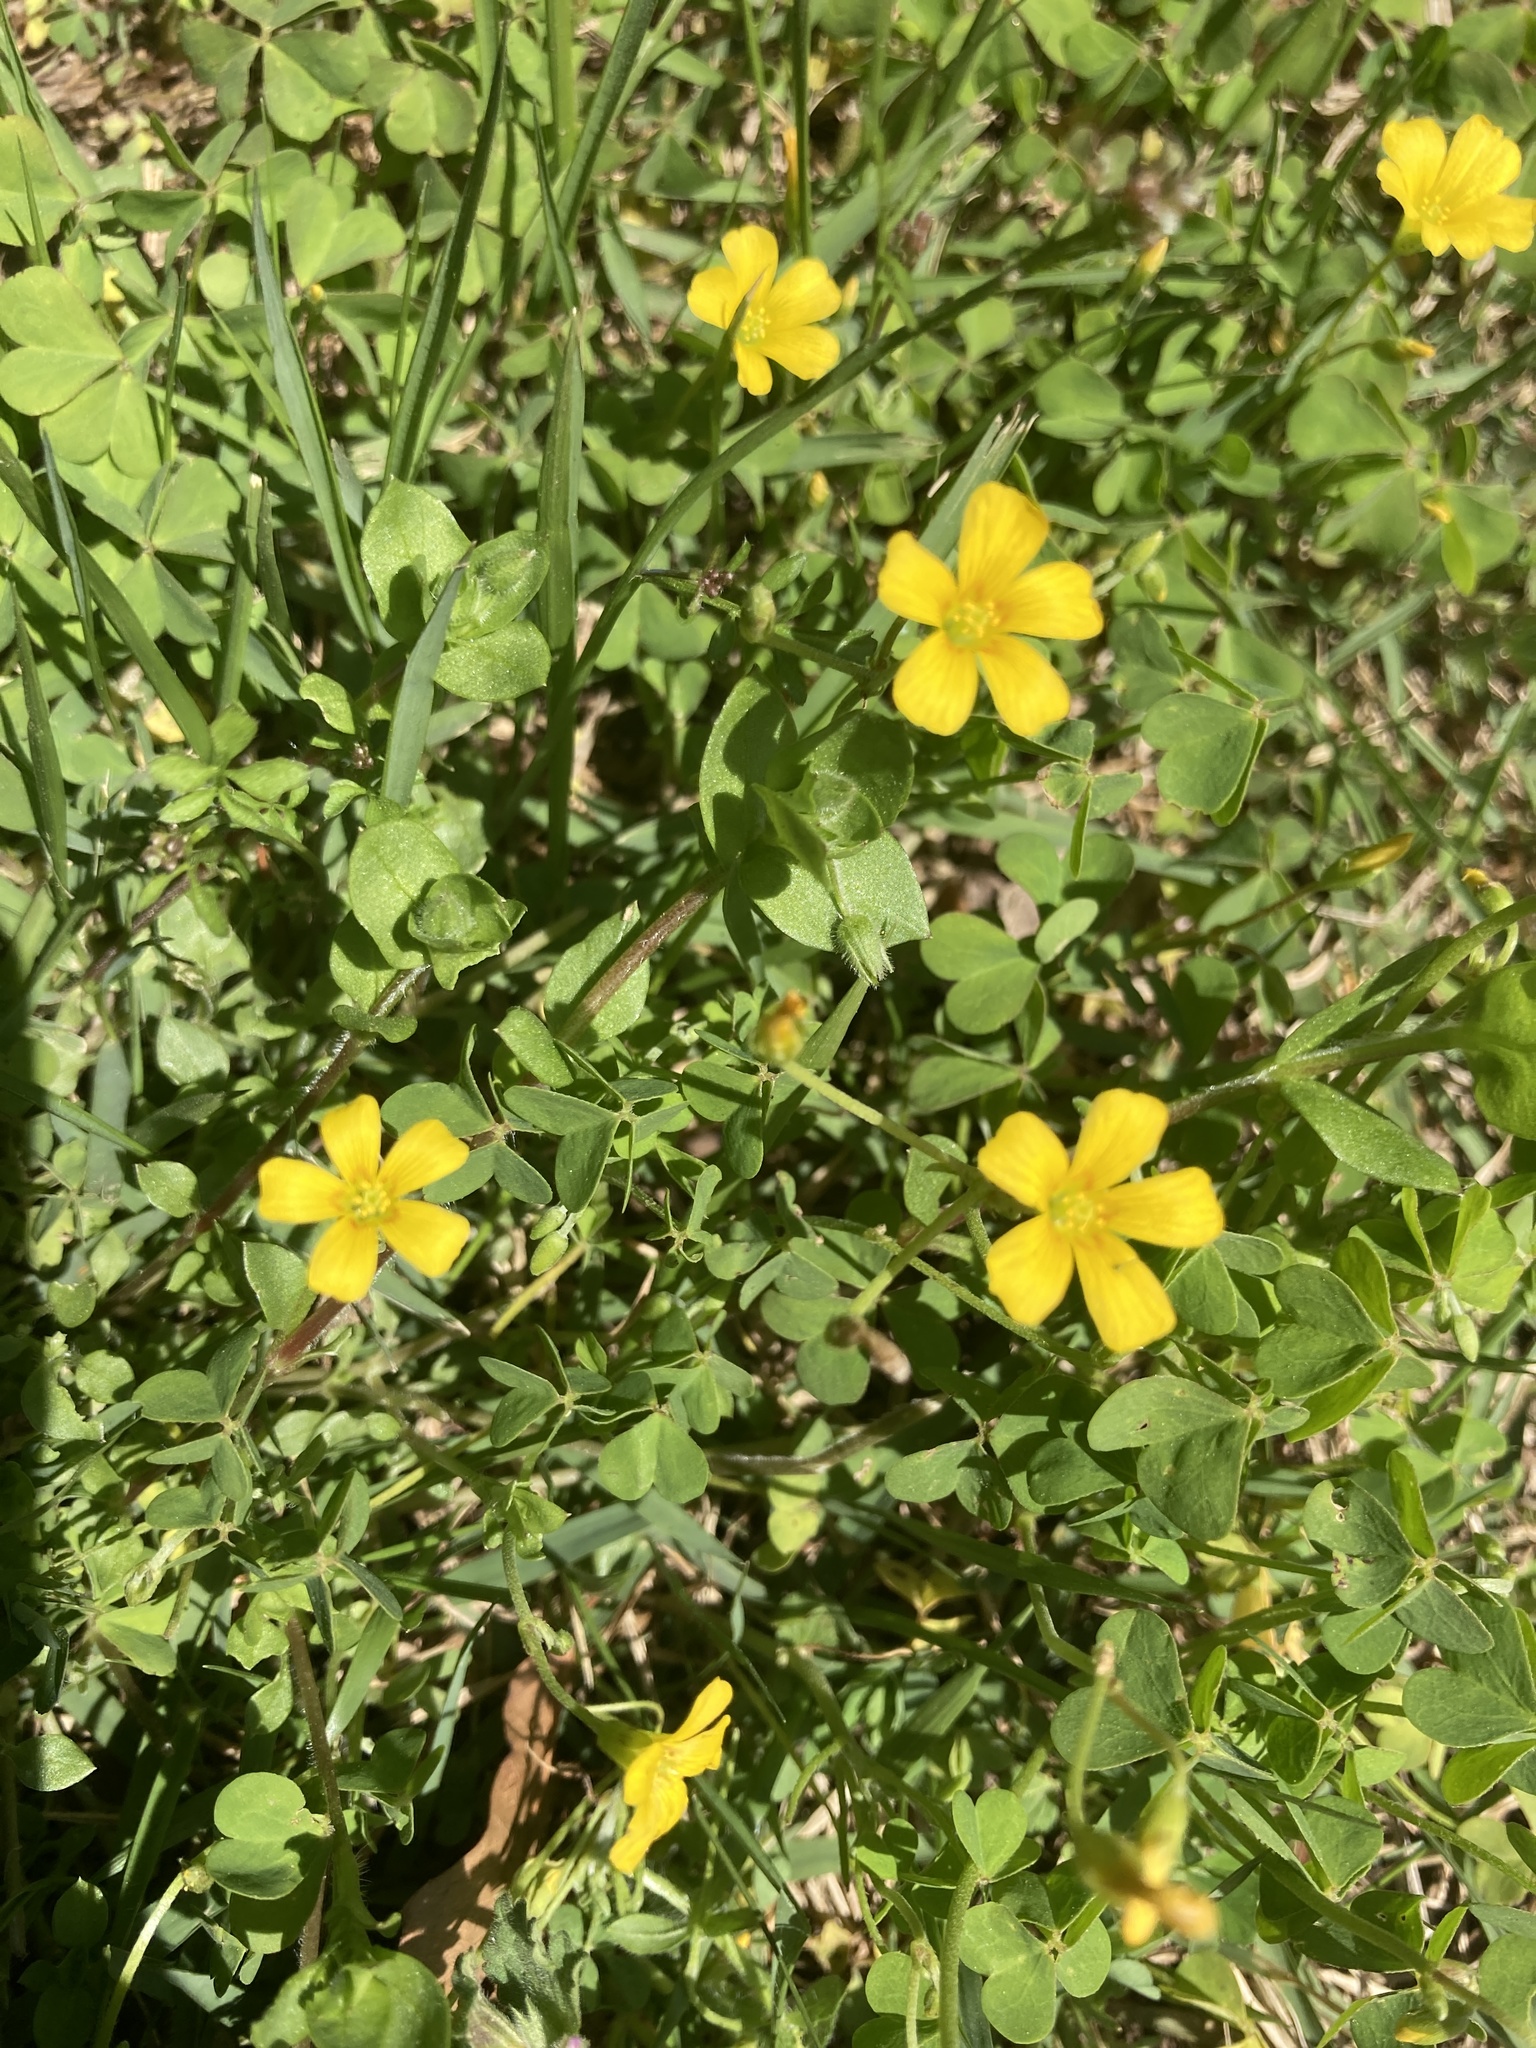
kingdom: Plantae
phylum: Tracheophyta
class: Magnoliopsida
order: Oxalidales
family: Oxalidaceae
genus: Oxalis
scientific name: Oxalis dillenii
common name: Sussex yellow-sorrel
